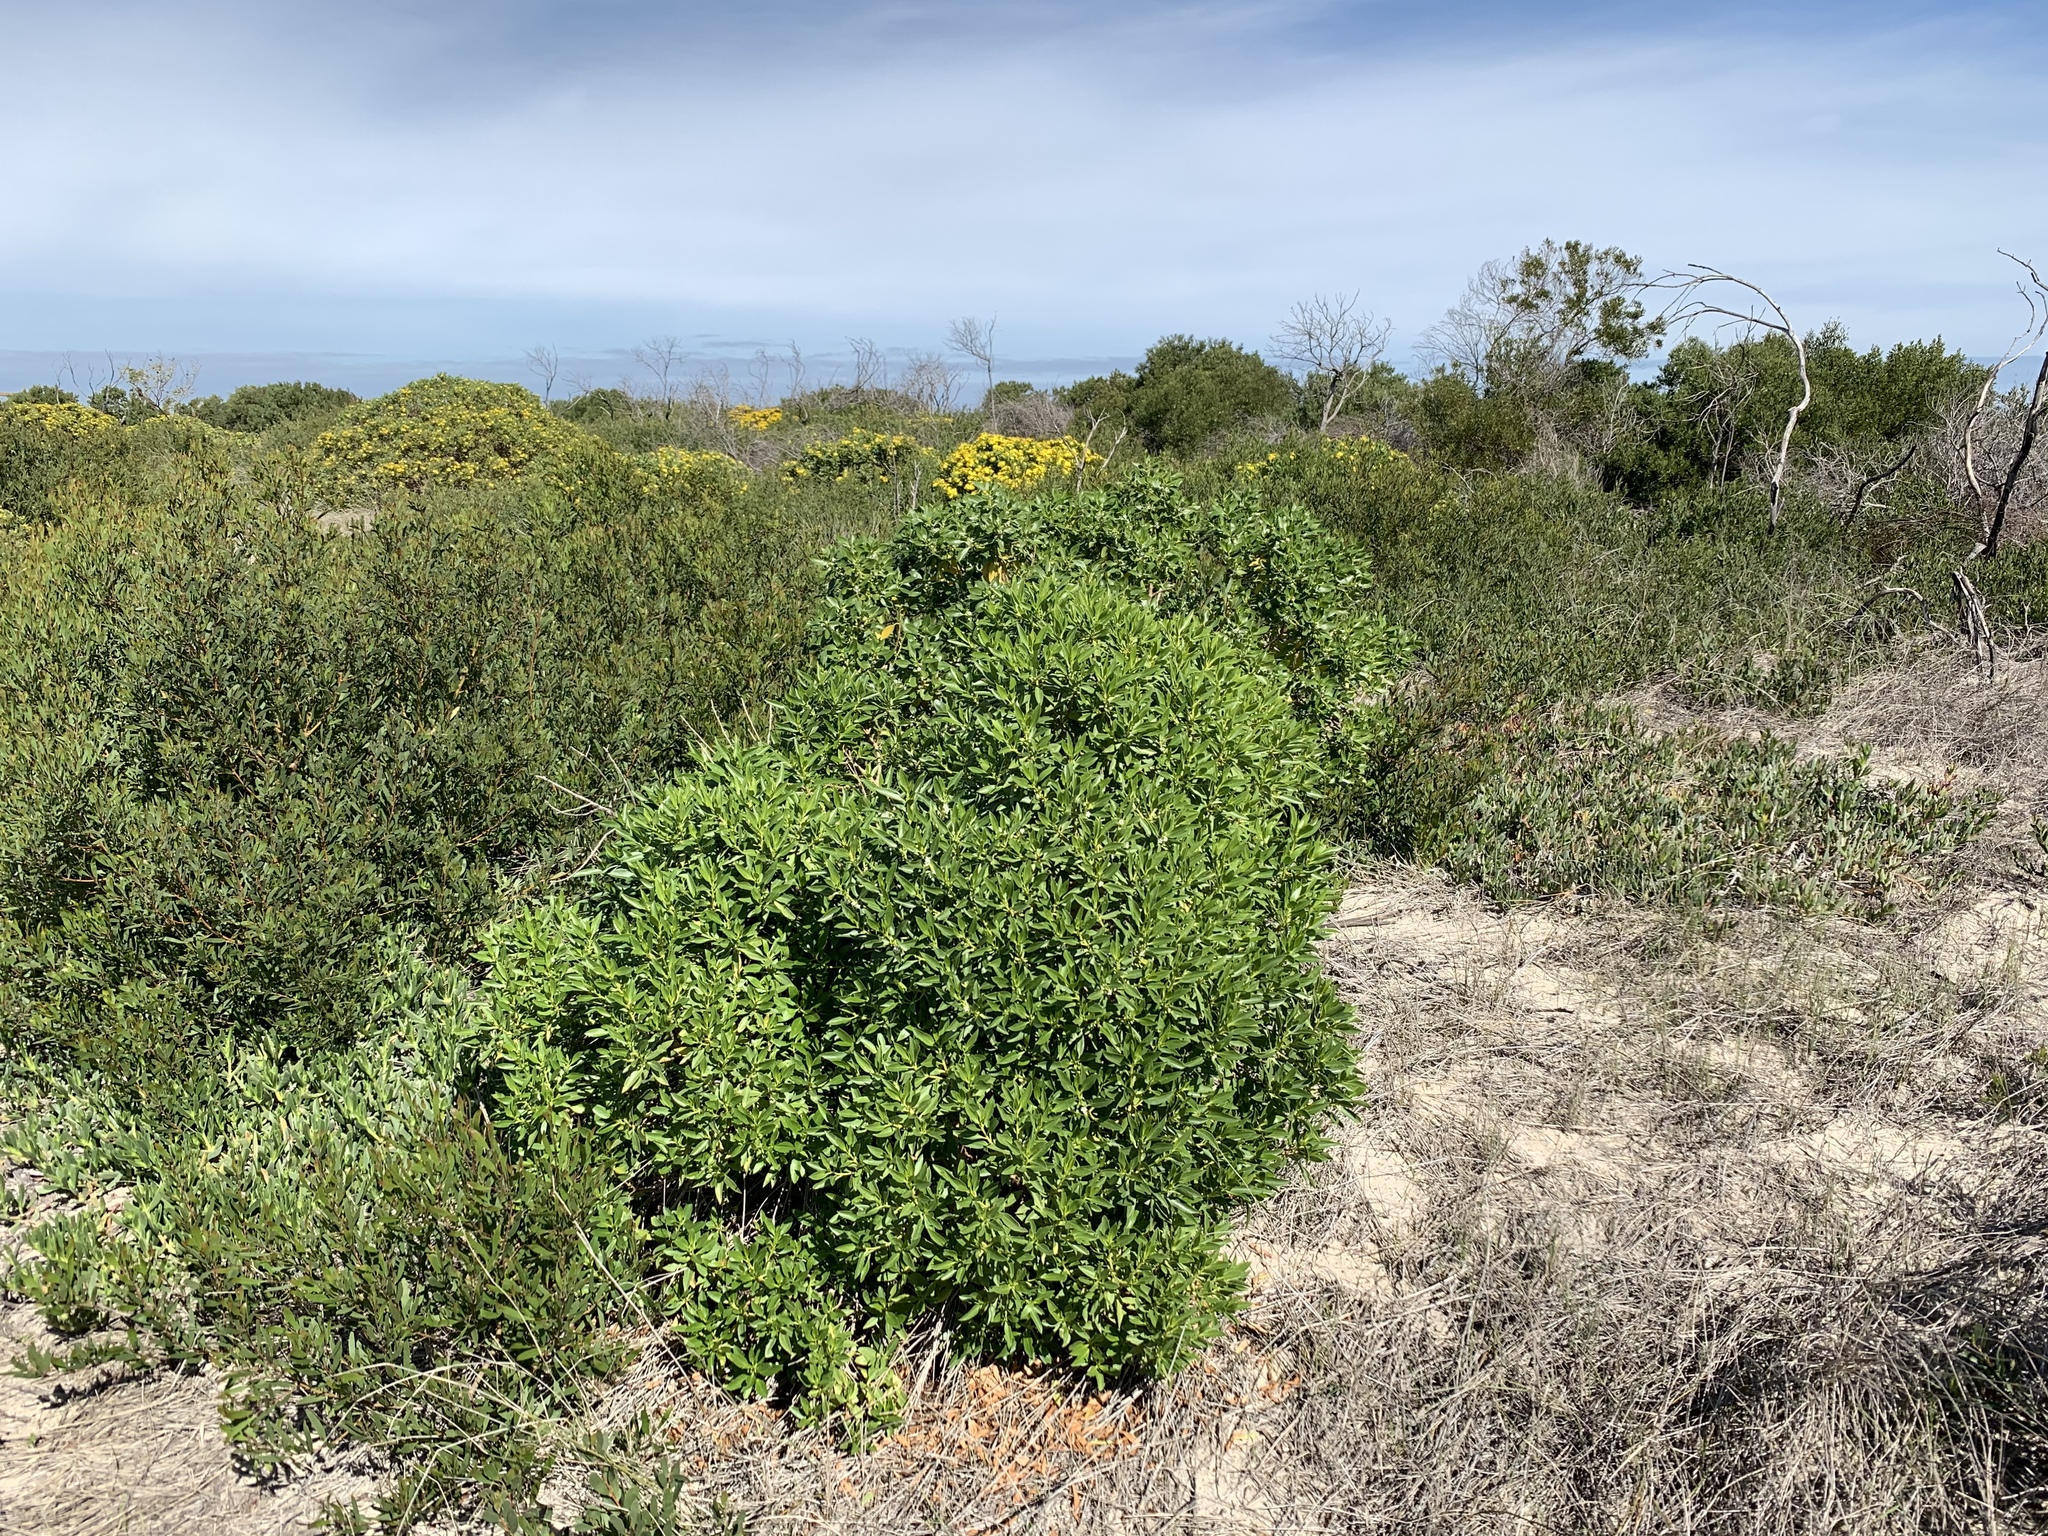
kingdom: Plantae
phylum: Tracheophyta
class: Magnoliopsida
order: Lamiales
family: Scrophulariaceae
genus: Myoporum
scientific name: Myoporum insulare
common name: Common boobialla
